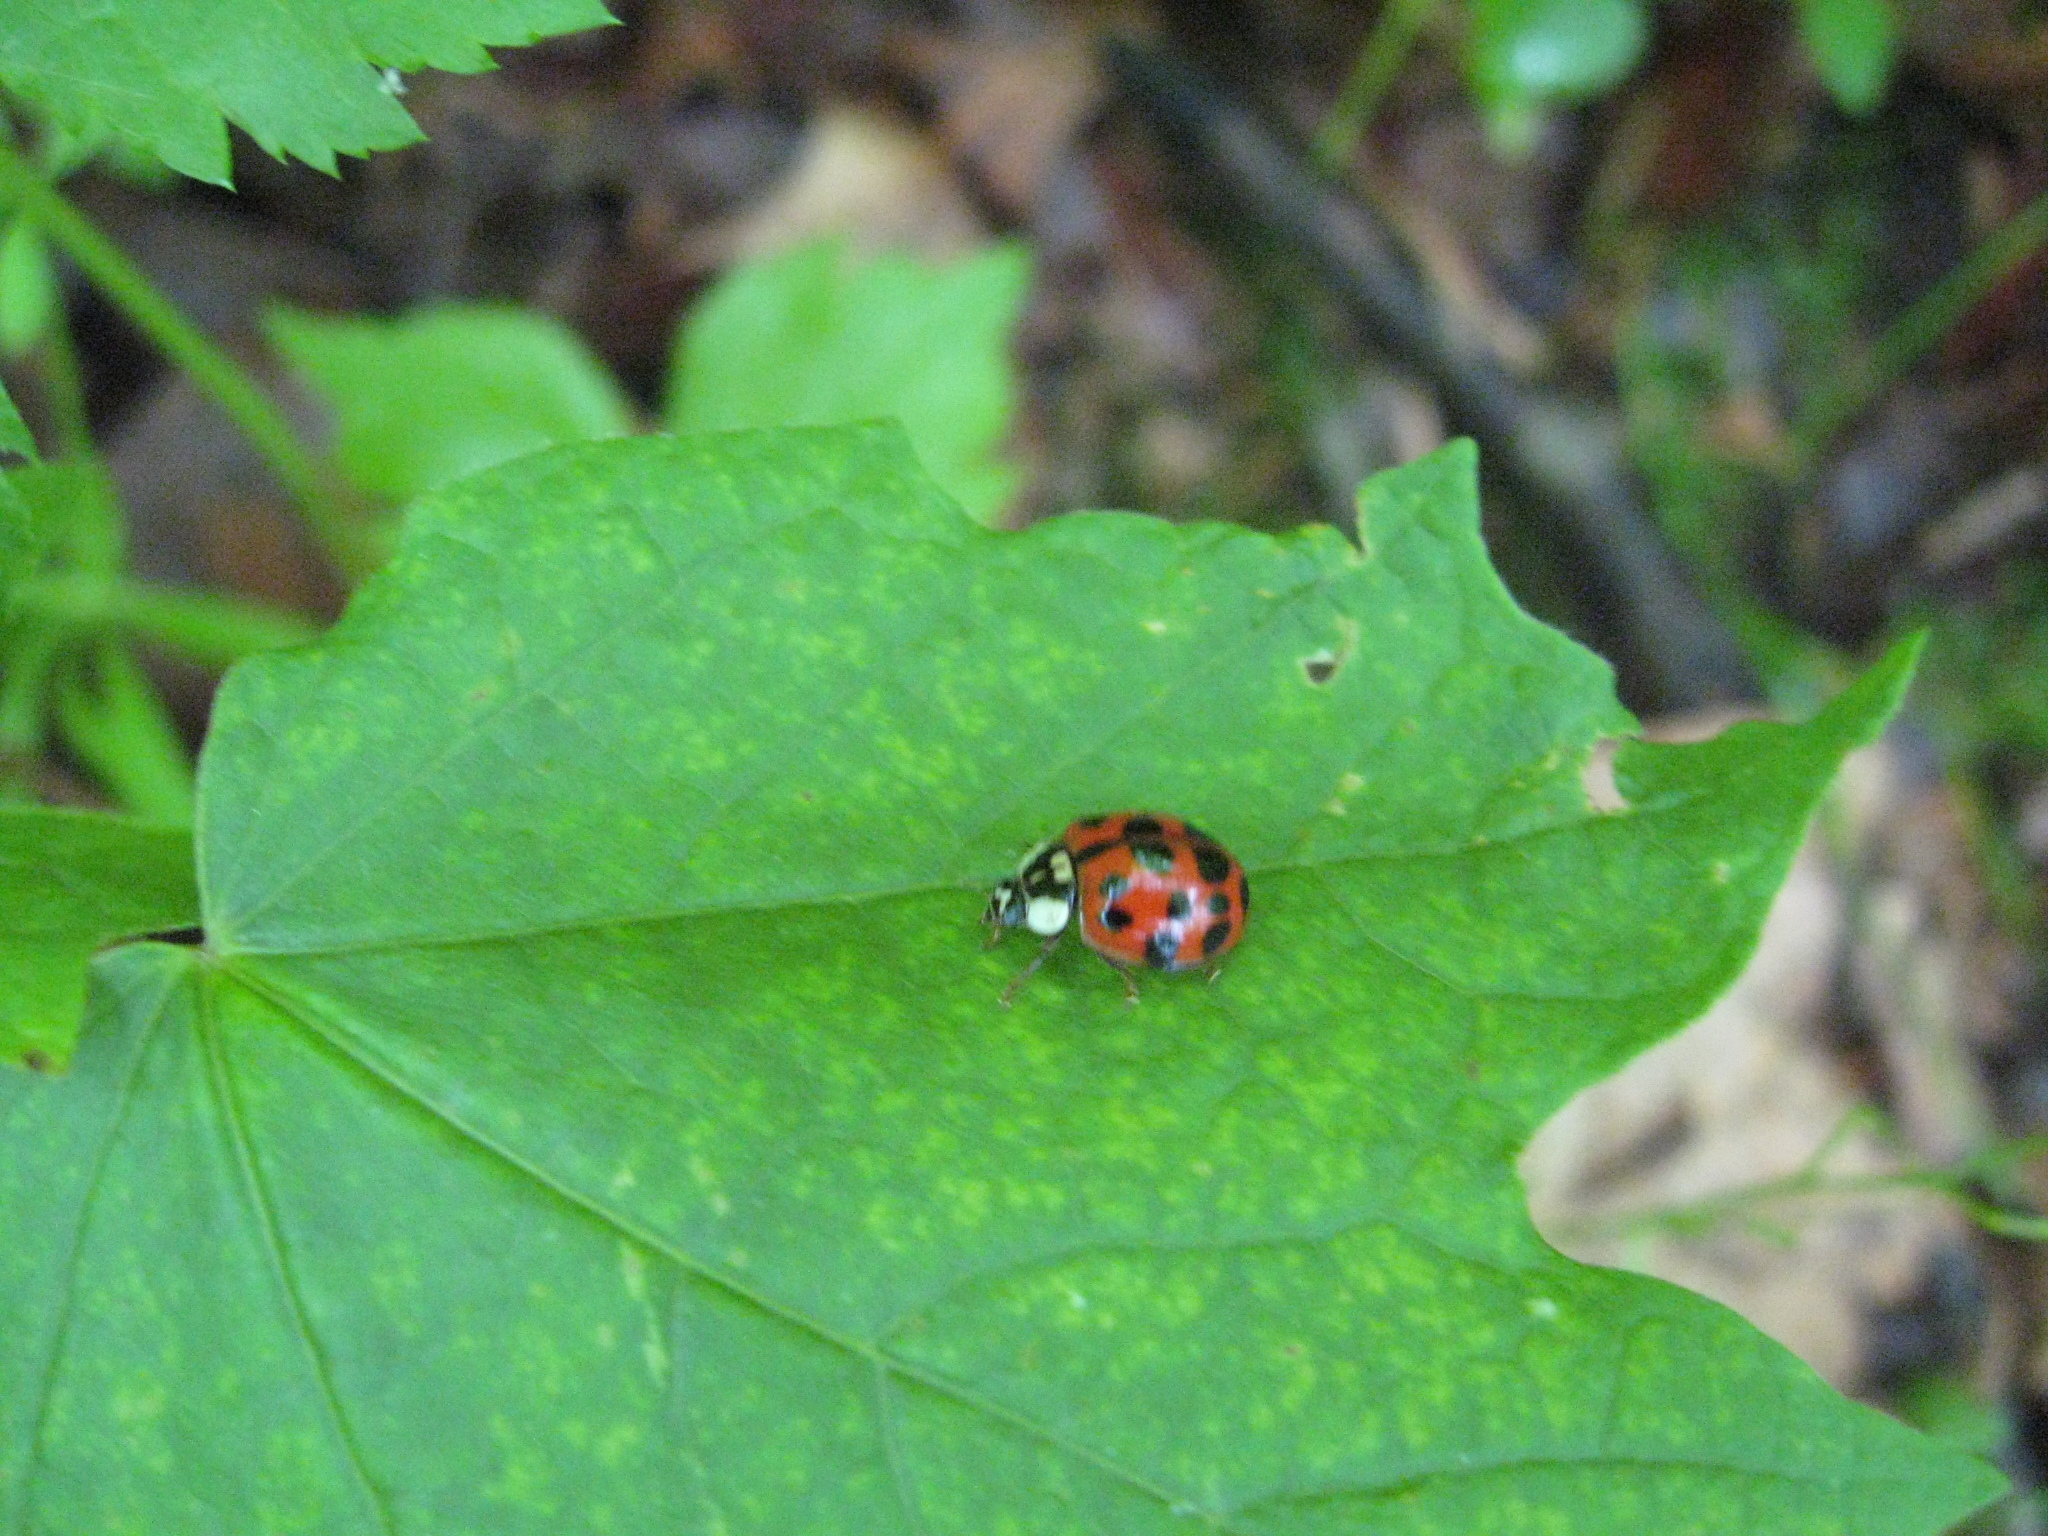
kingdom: Animalia
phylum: Arthropoda
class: Insecta
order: Coleoptera
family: Coccinellidae
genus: Harmonia
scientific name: Harmonia axyridis
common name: Harlequin ladybird
